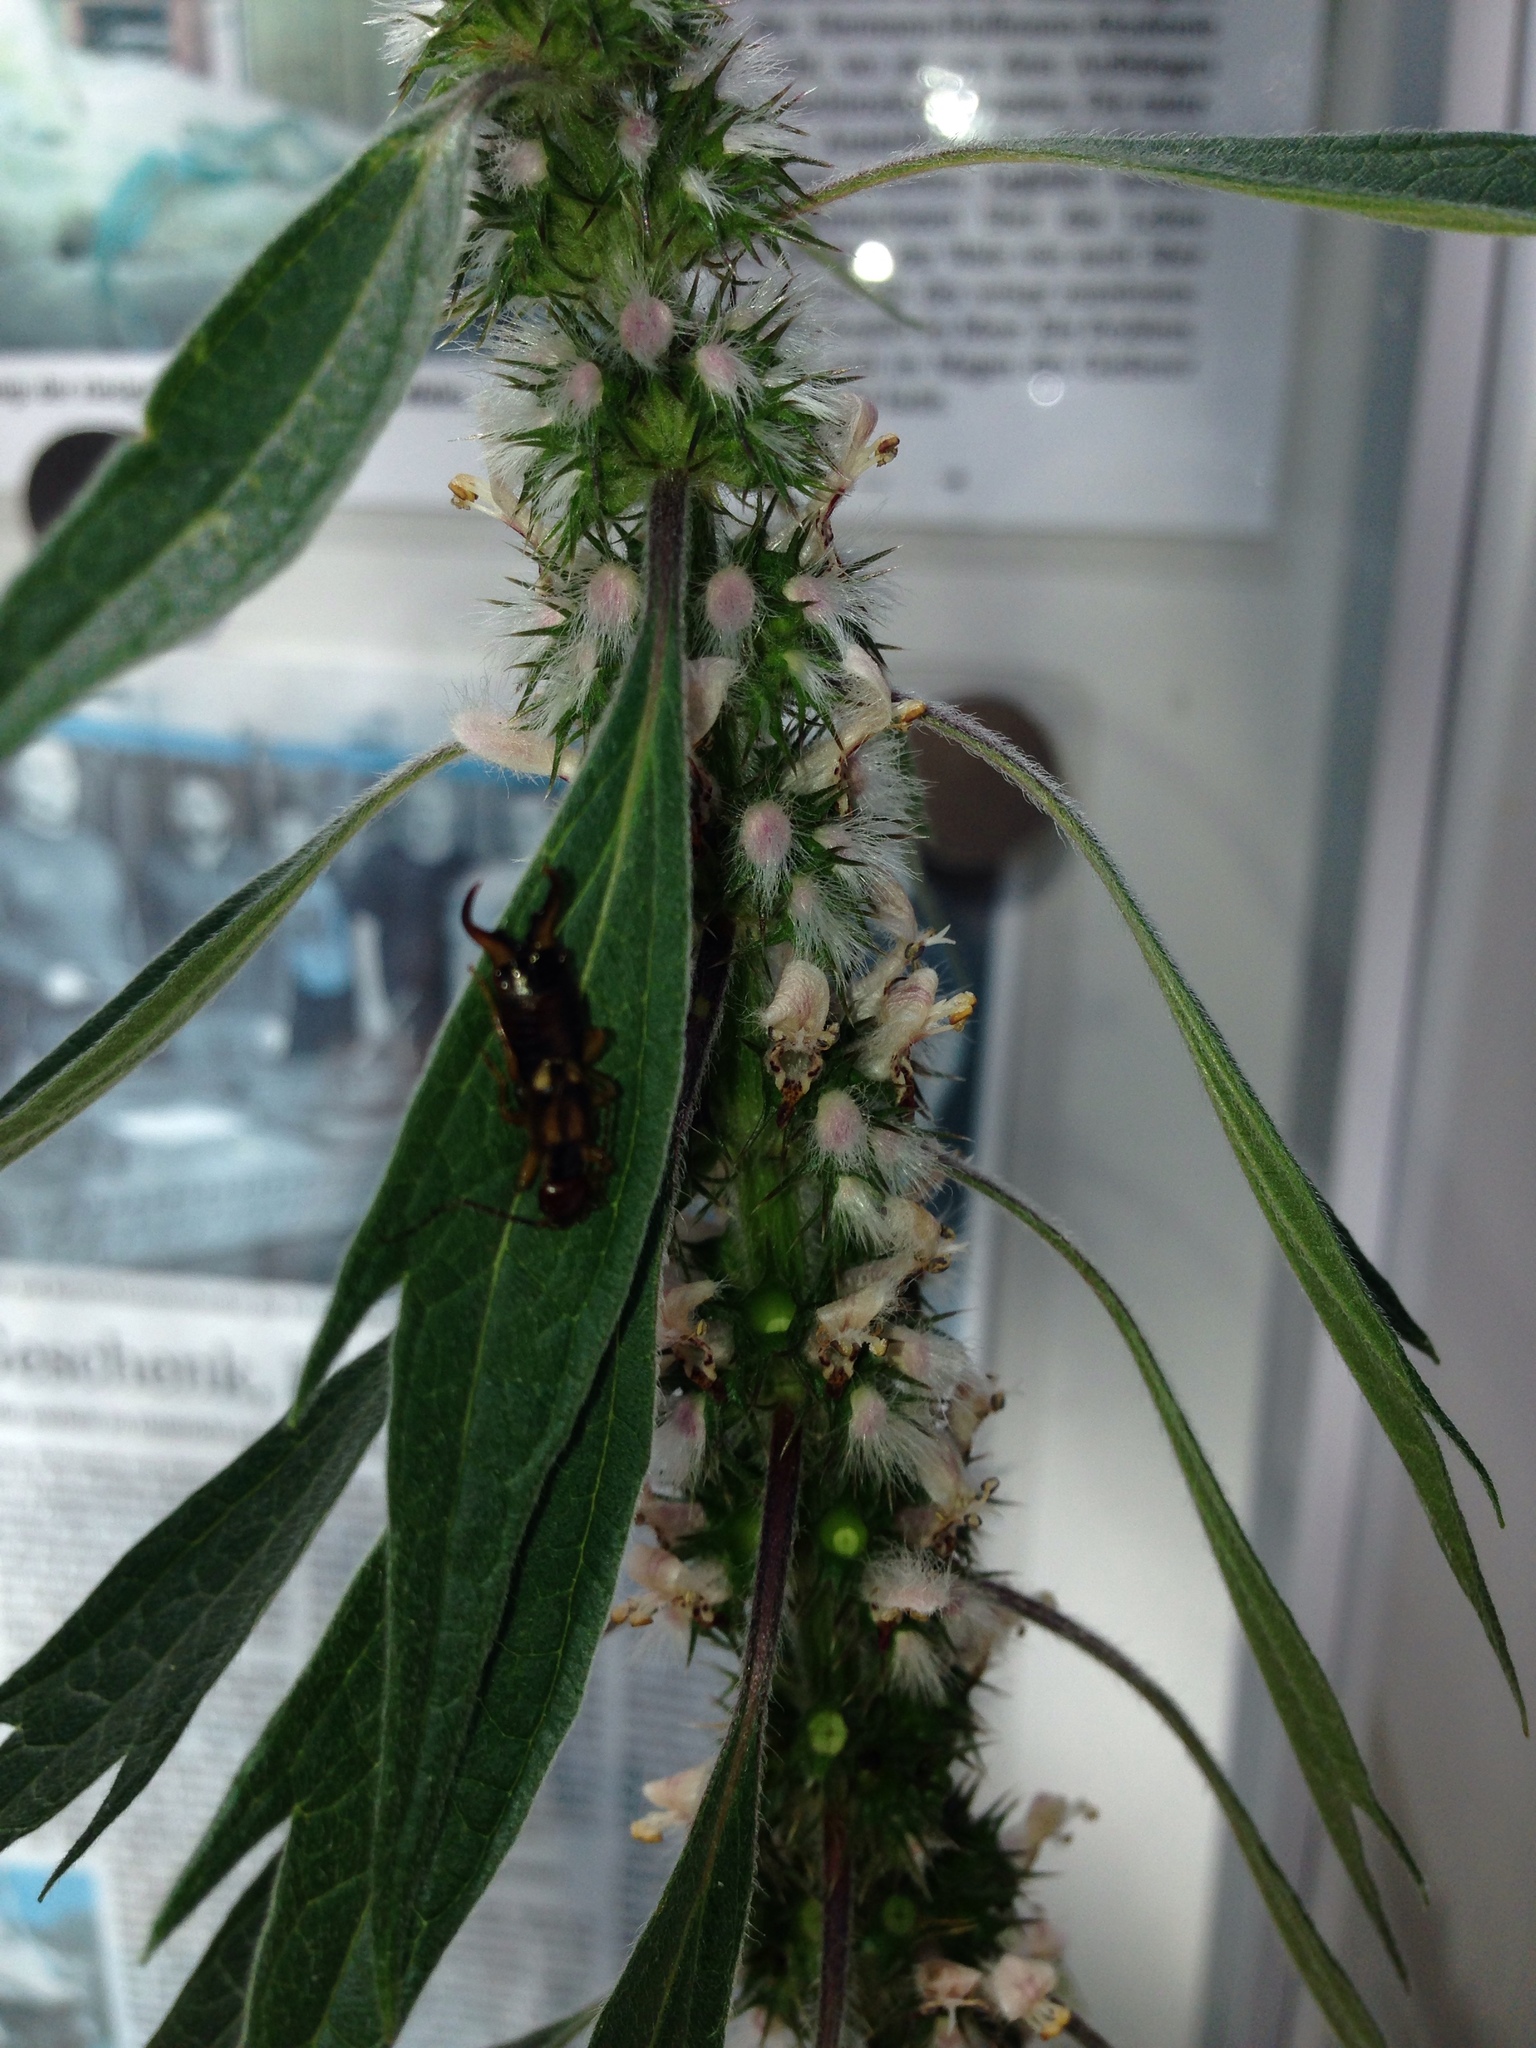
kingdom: Animalia
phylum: Arthropoda
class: Insecta
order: Dermaptera
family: Forficulidae
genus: Forficula
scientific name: Forficula
